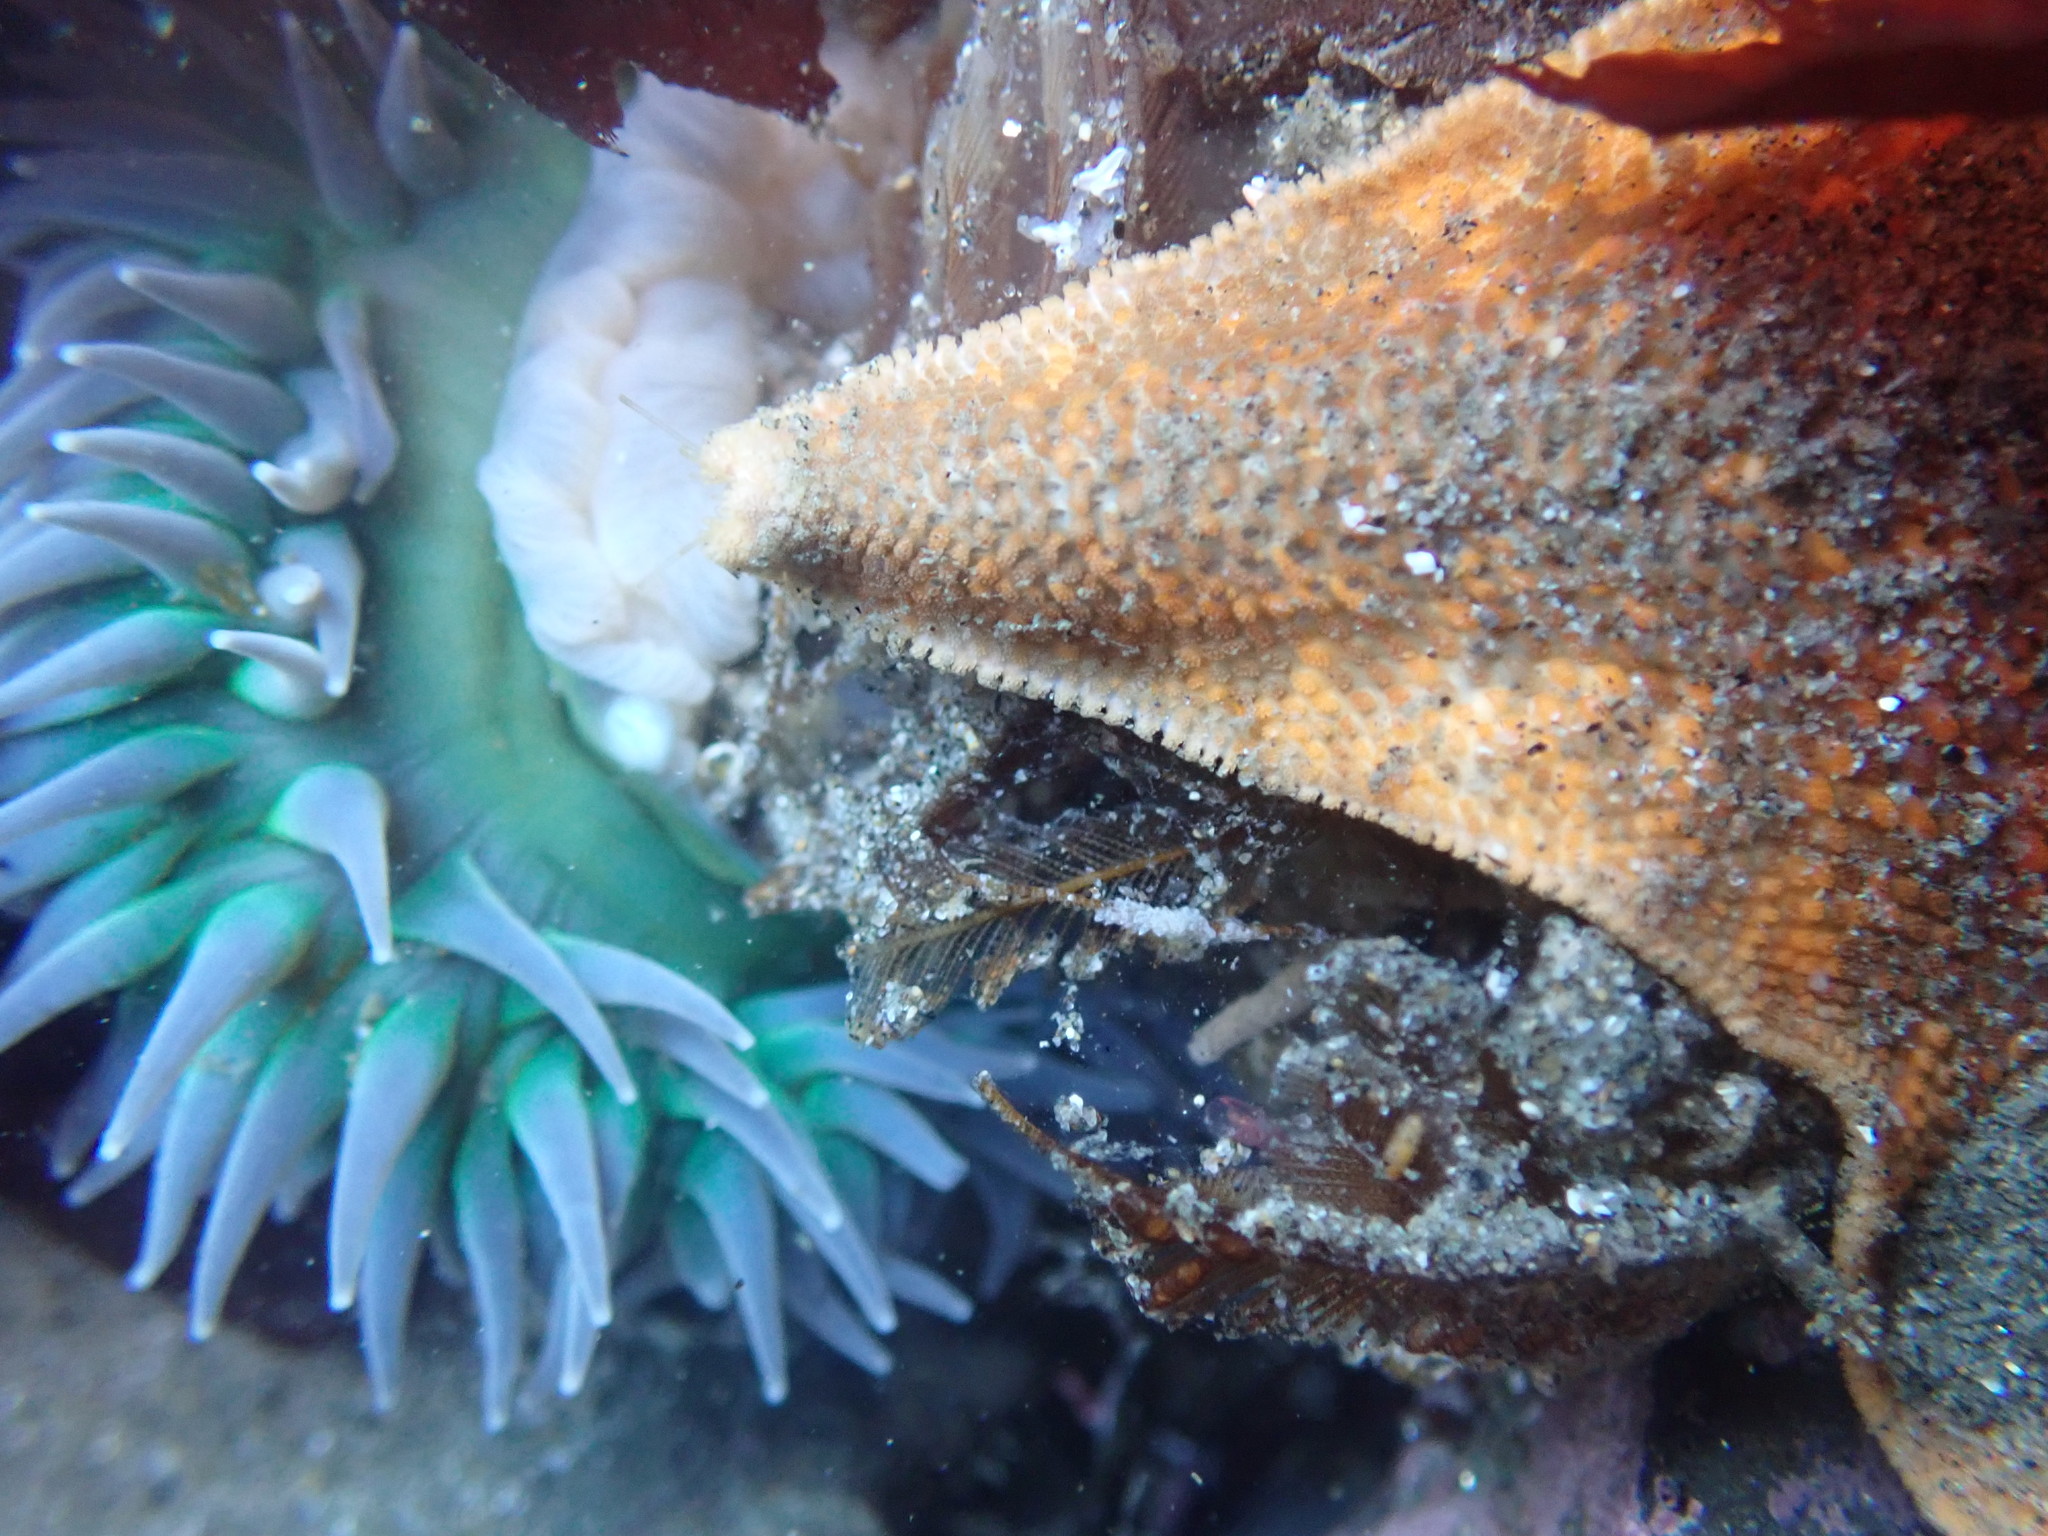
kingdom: Animalia
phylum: Cnidaria
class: Anthozoa
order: Actiniaria
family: Actiniidae
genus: Anthopleura
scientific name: Anthopleura xanthogrammica
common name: Giant green anemone
